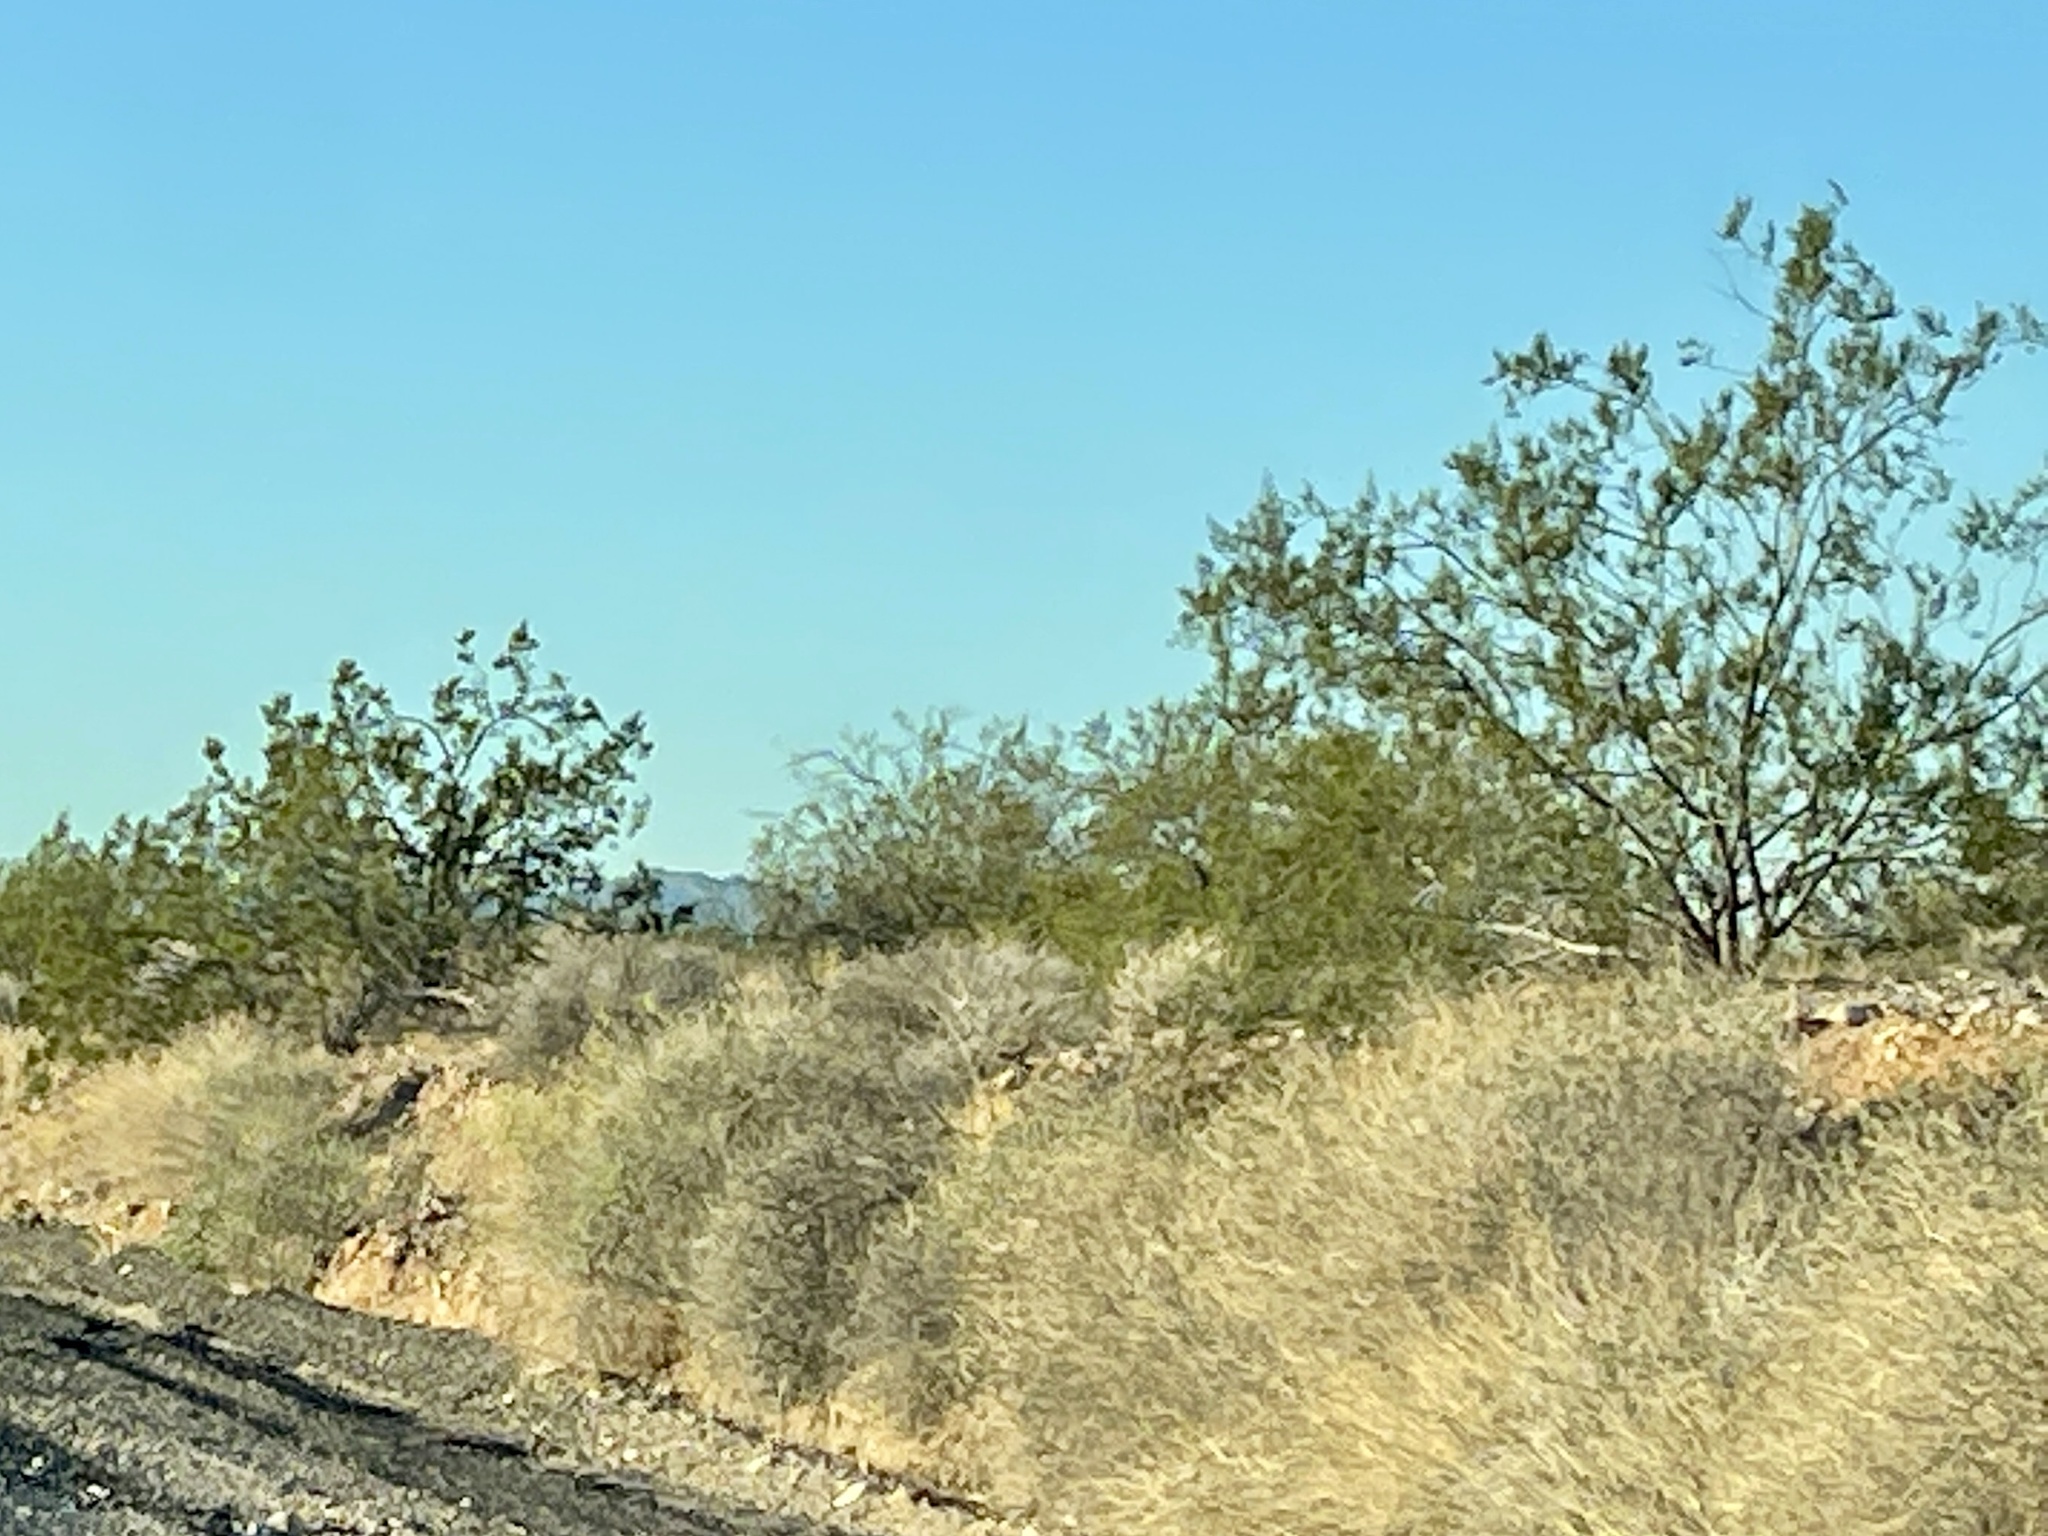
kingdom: Plantae
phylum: Tracheophyta
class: Magnoliopsida
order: Zygophyllales
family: Zygophyllaceae
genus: Larrea
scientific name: Larrea tridentata
